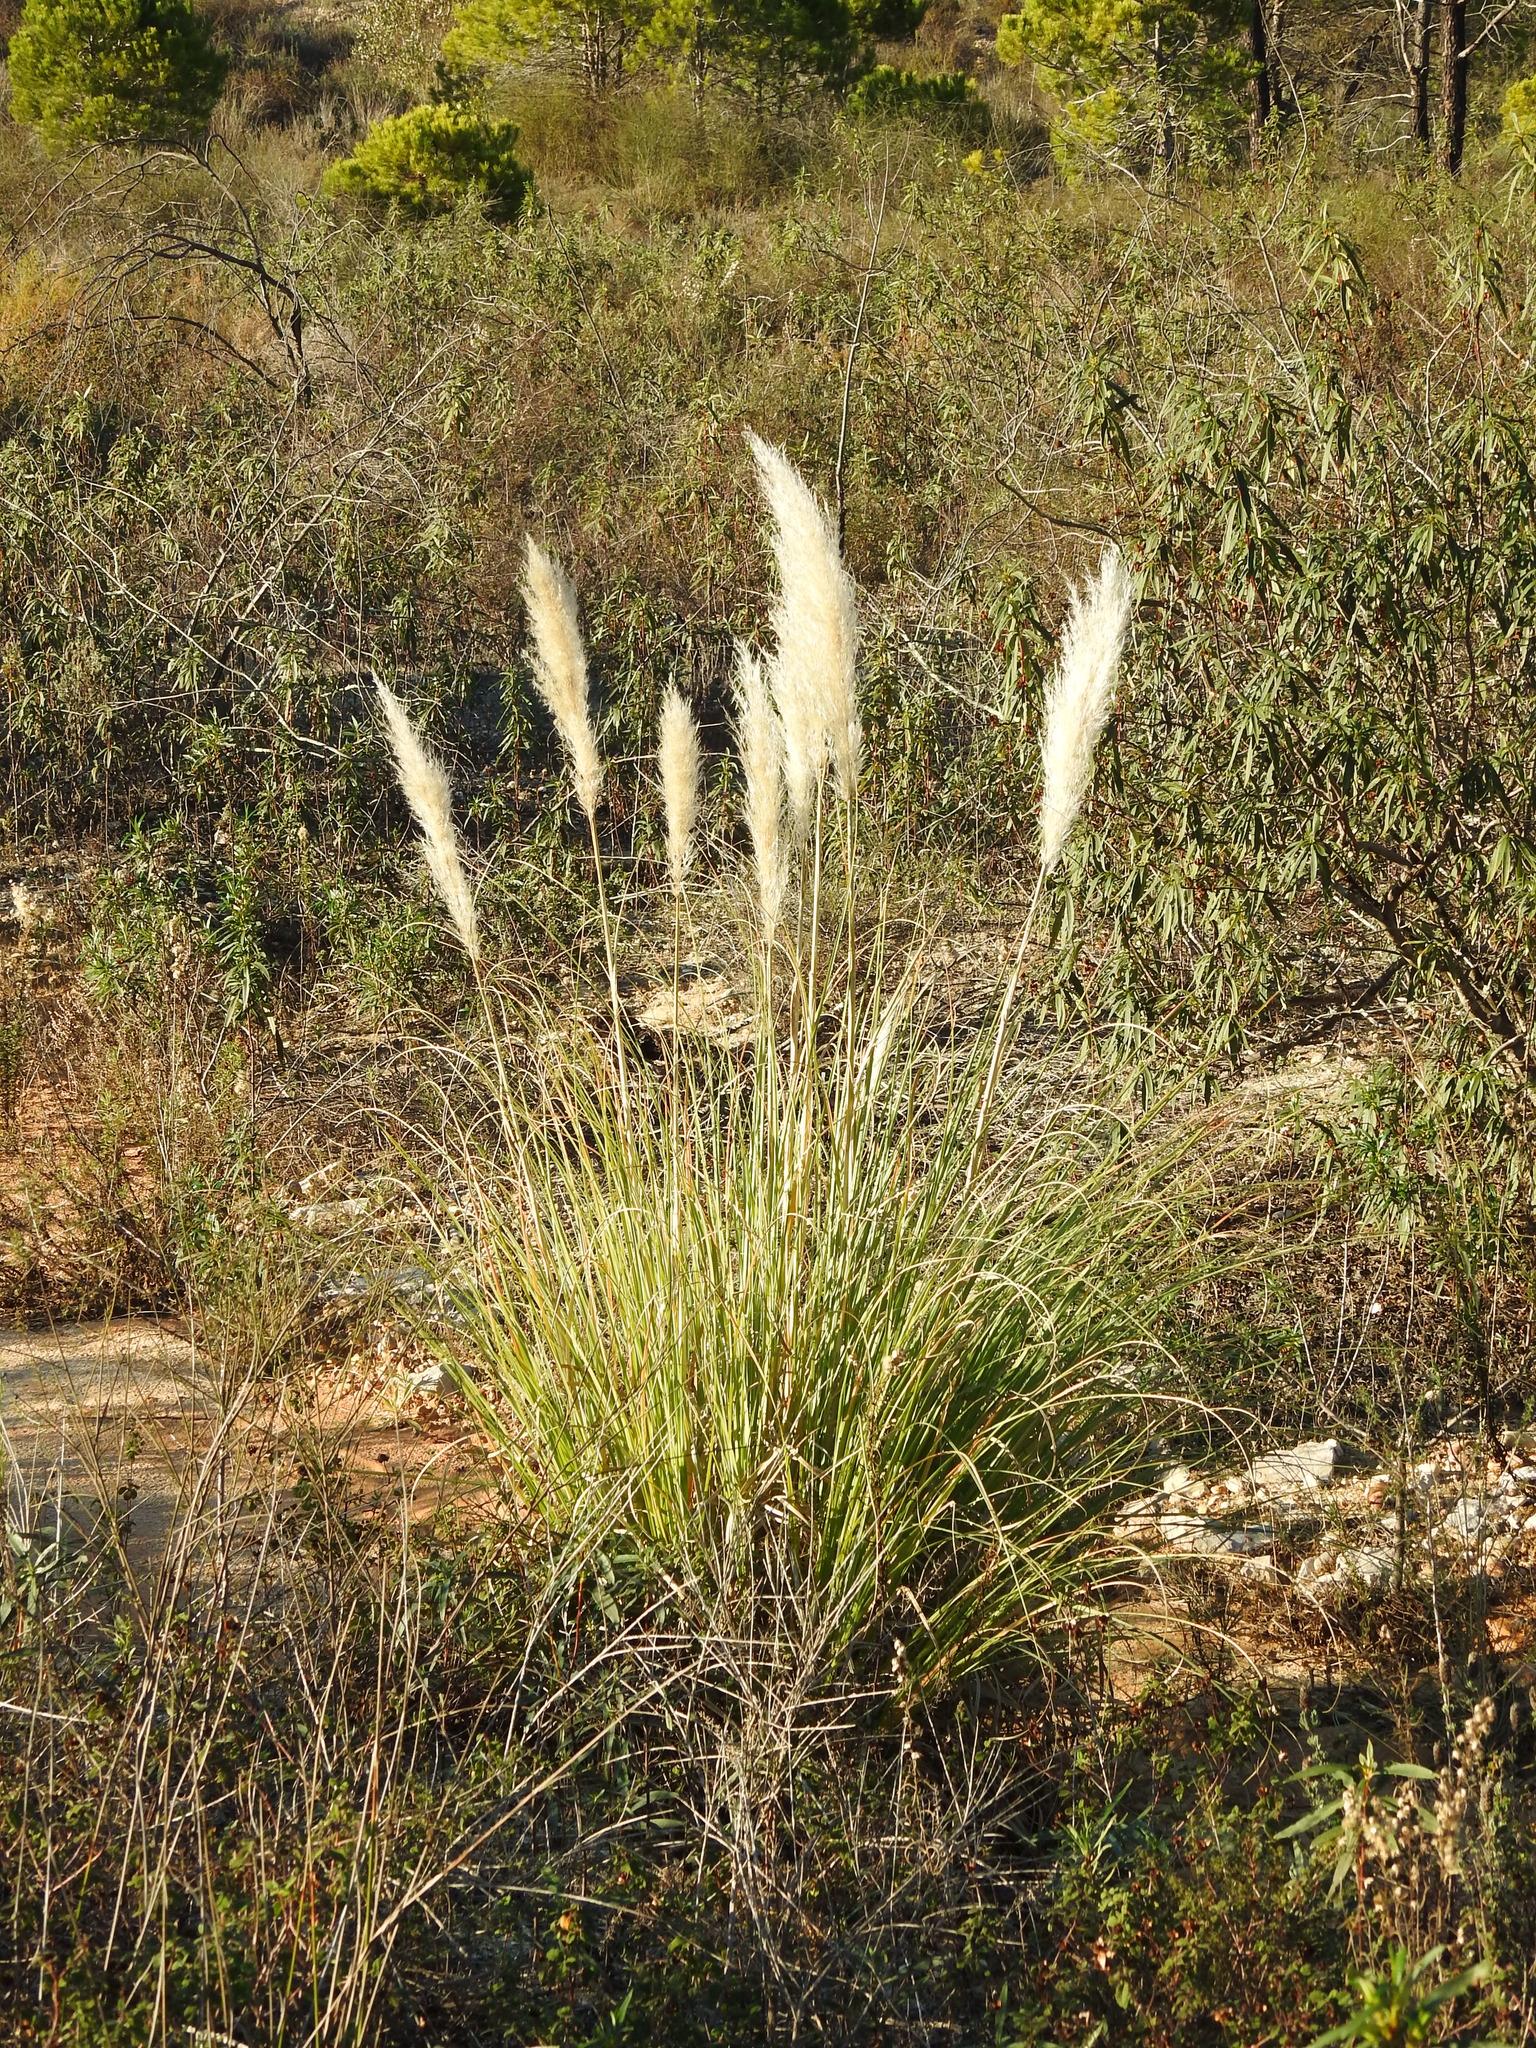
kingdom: Plantae
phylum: Tracheophyta
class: Liliopsida
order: Poales
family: Poaceae
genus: Cortaderia
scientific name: Cortaderia selloana
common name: Uruguayan pampas grass
